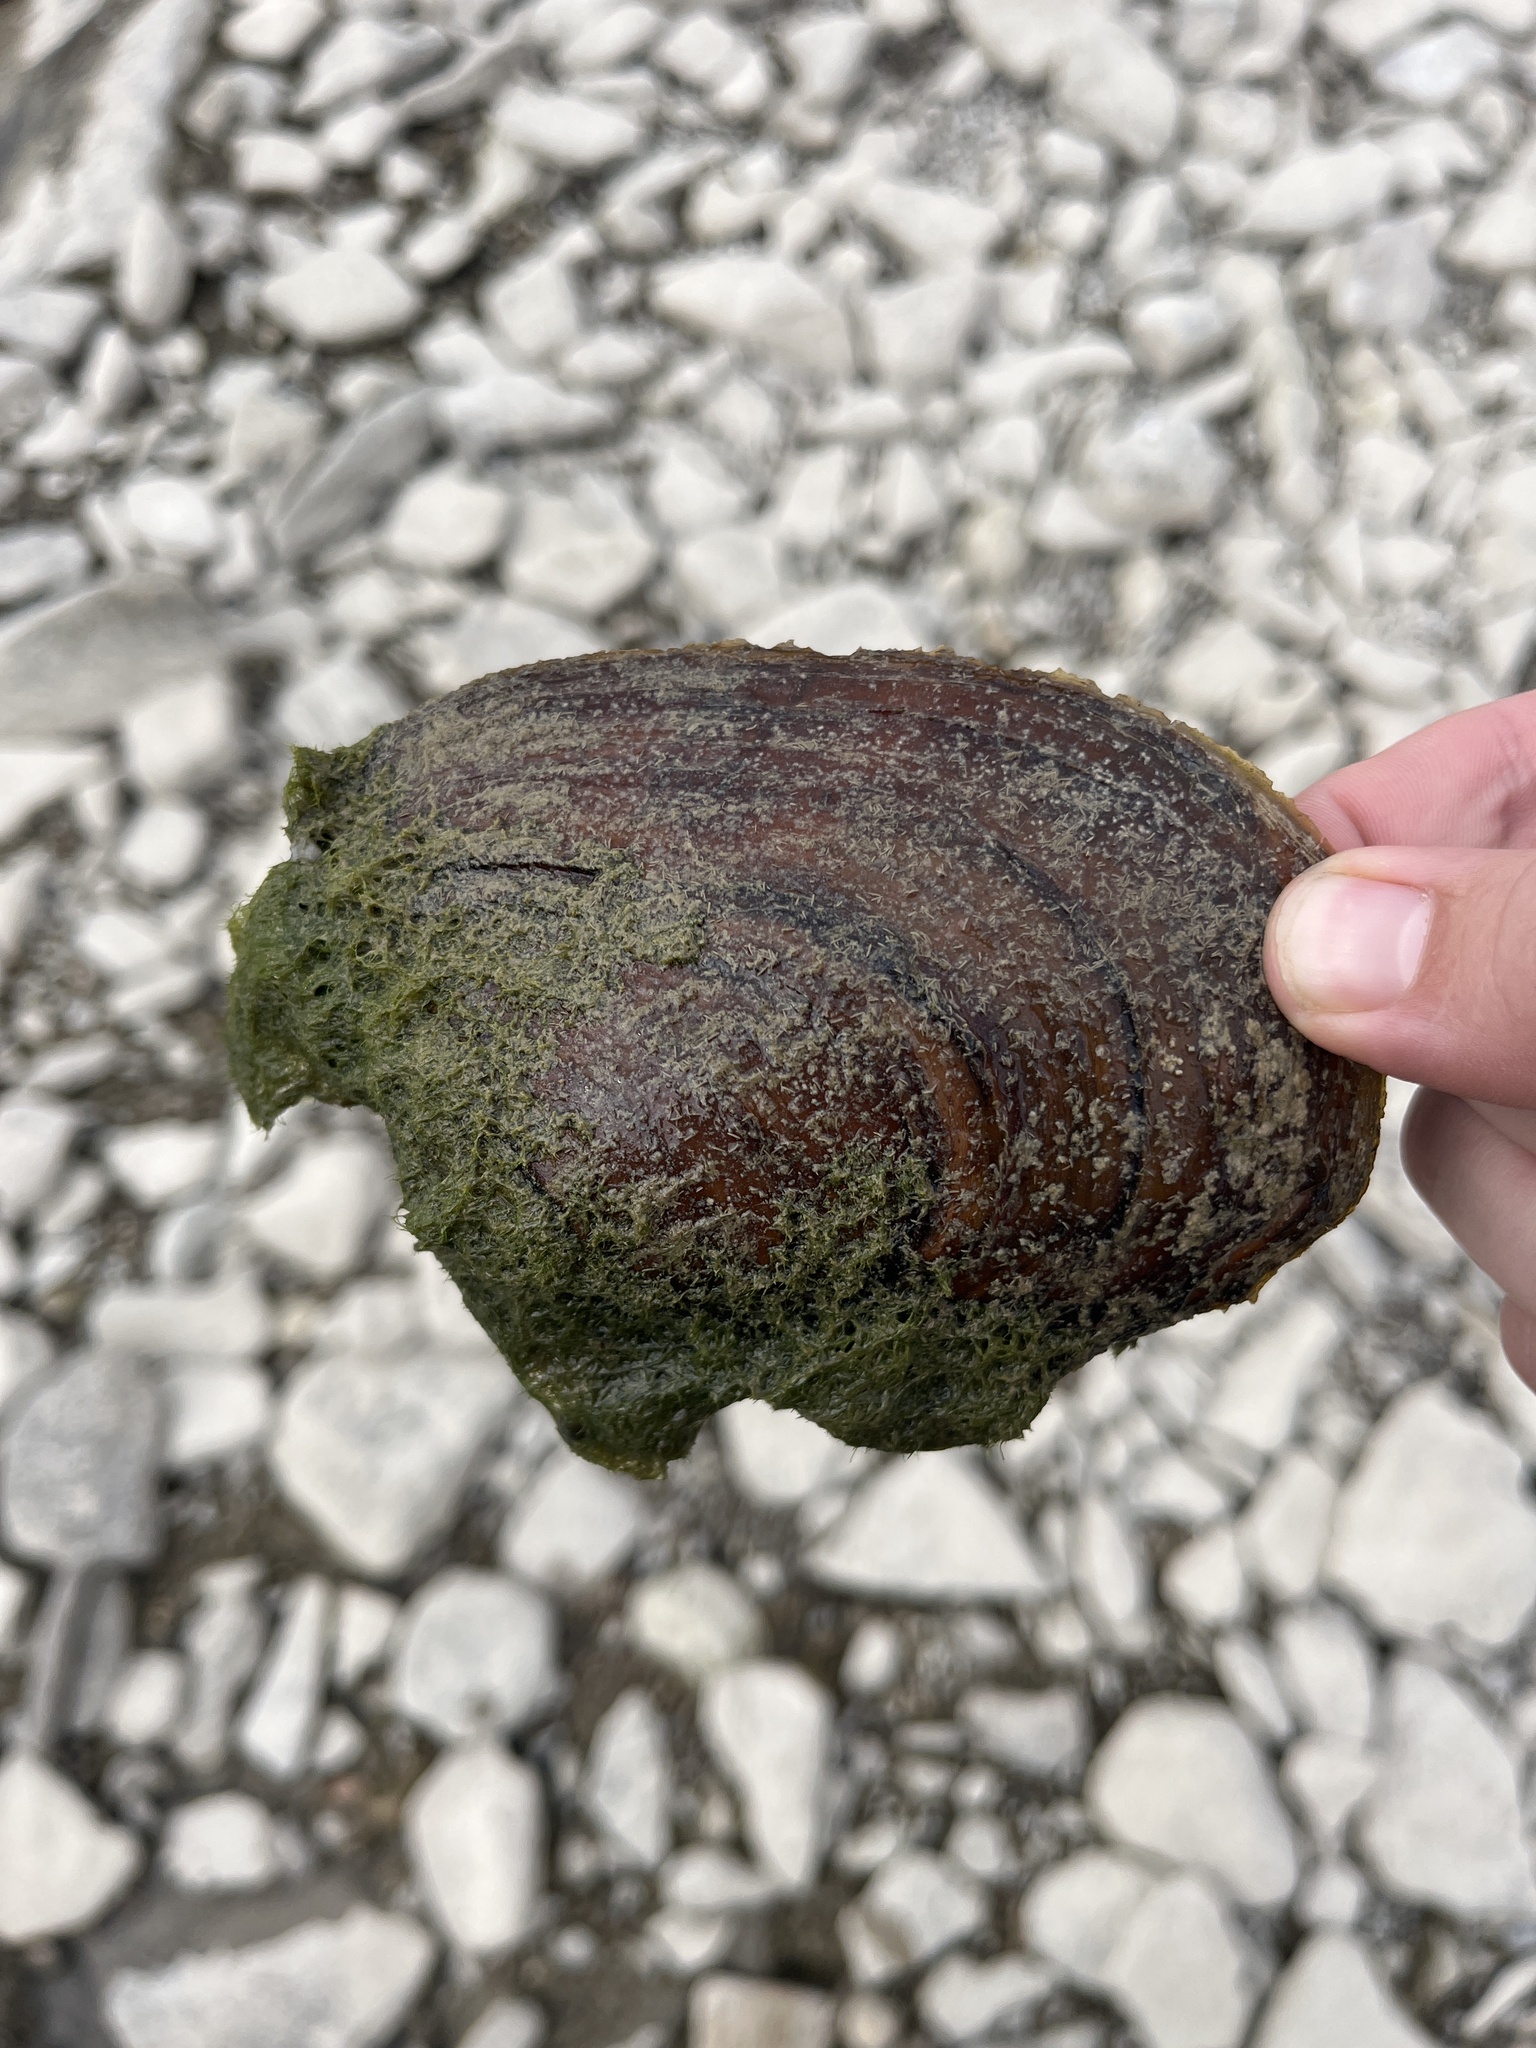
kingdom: Animalia
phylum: Mollusca
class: Bivalvia
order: Unionida
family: Unionidae
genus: Potamilus
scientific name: Potamilus alatus
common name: Pink heelsplitter
